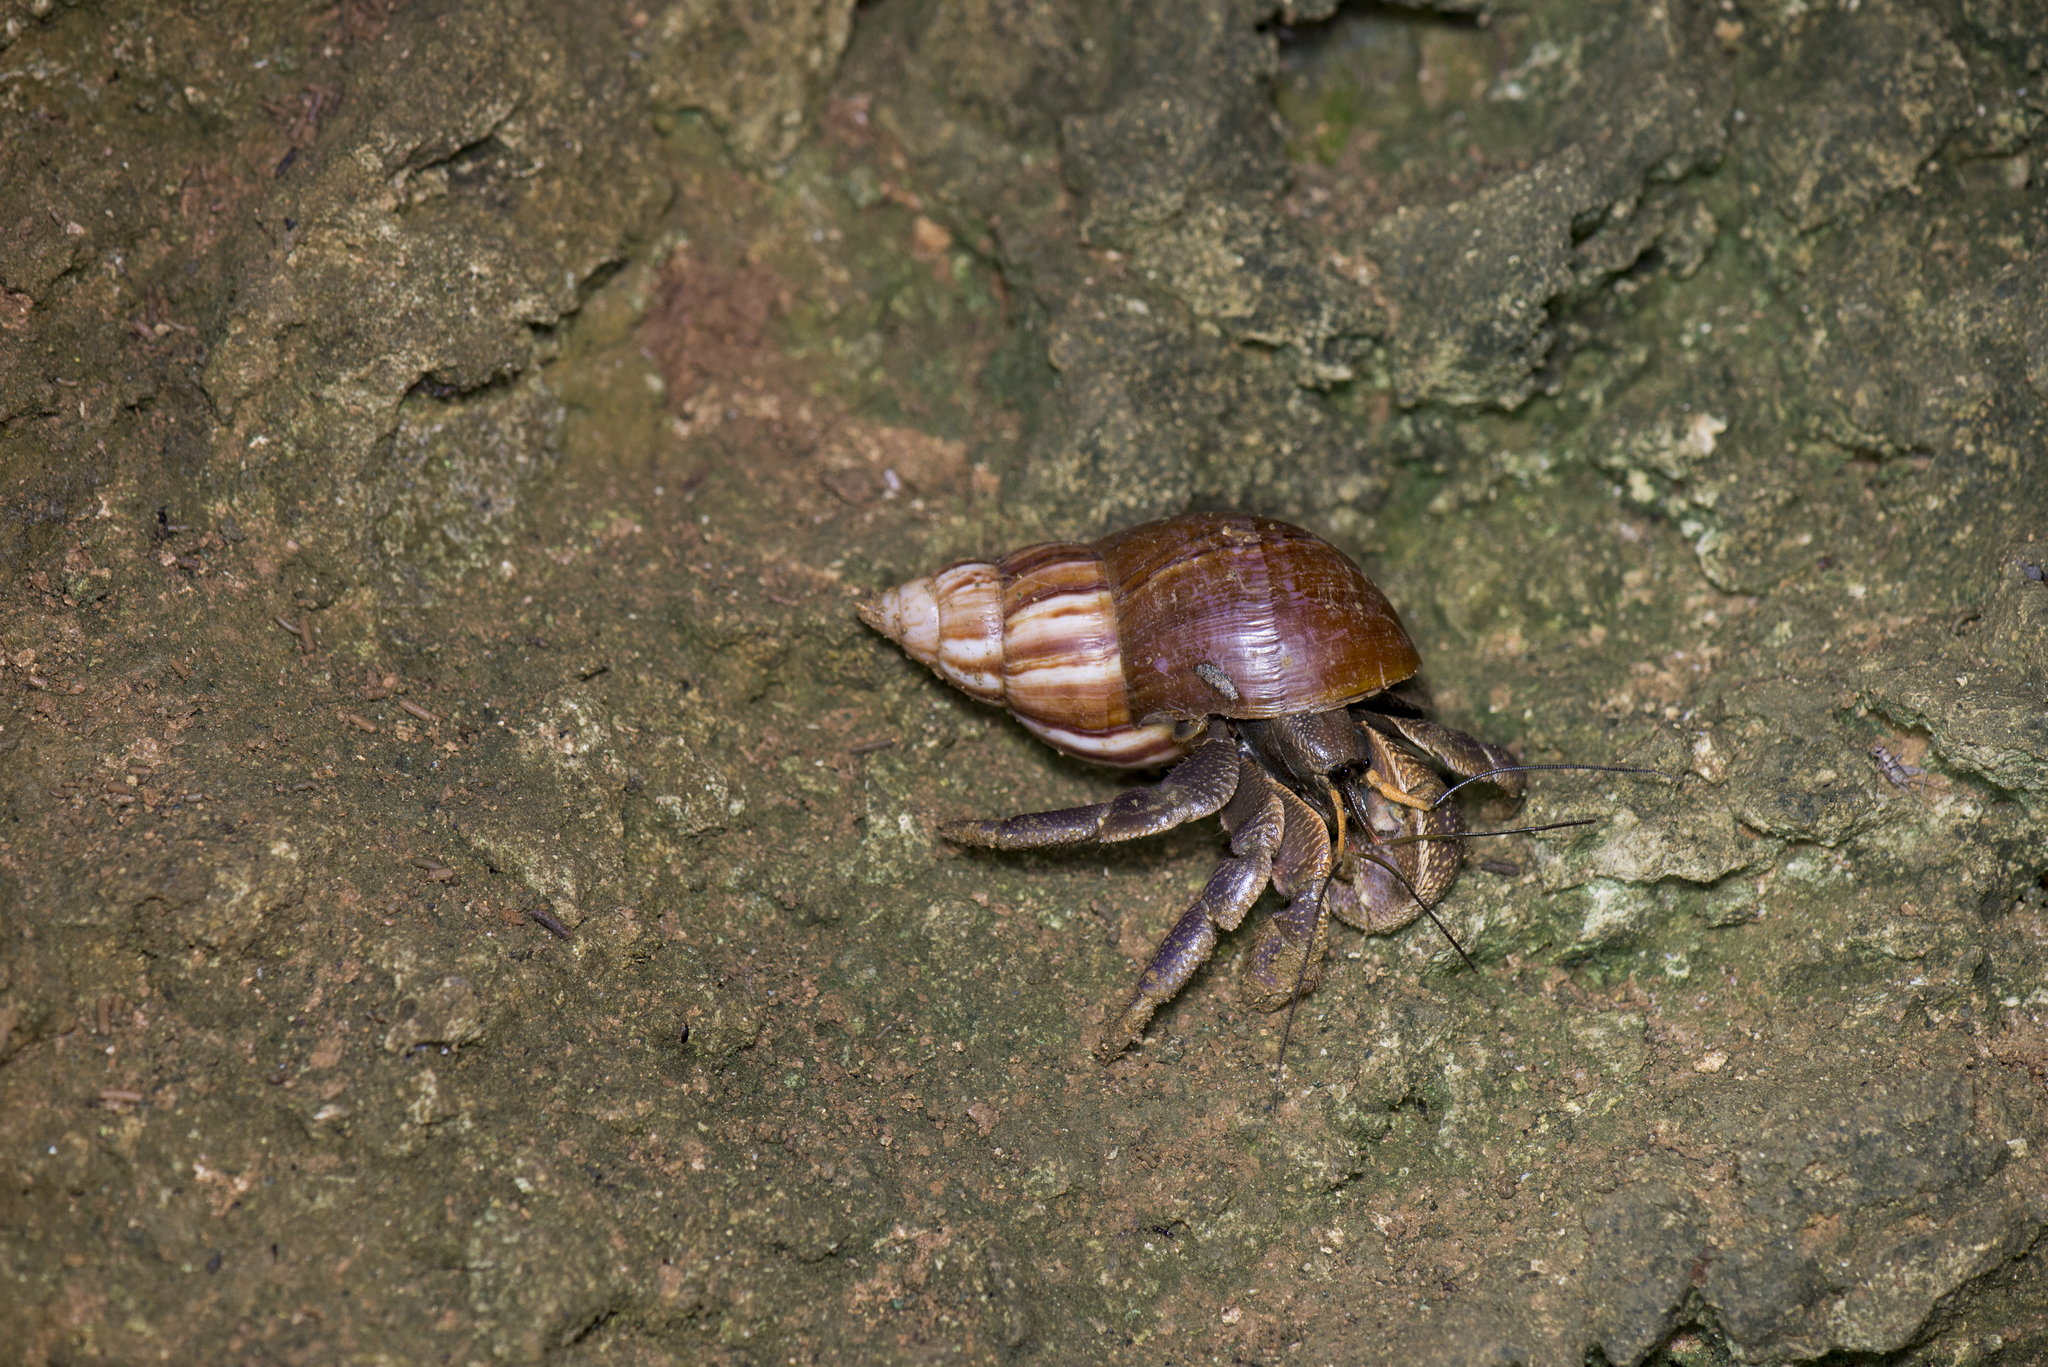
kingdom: Animalia
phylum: Arthropoda
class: Malacostraca
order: Decapoda
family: Coenobitidae
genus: Coenobita
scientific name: Coenobita brevimanus
